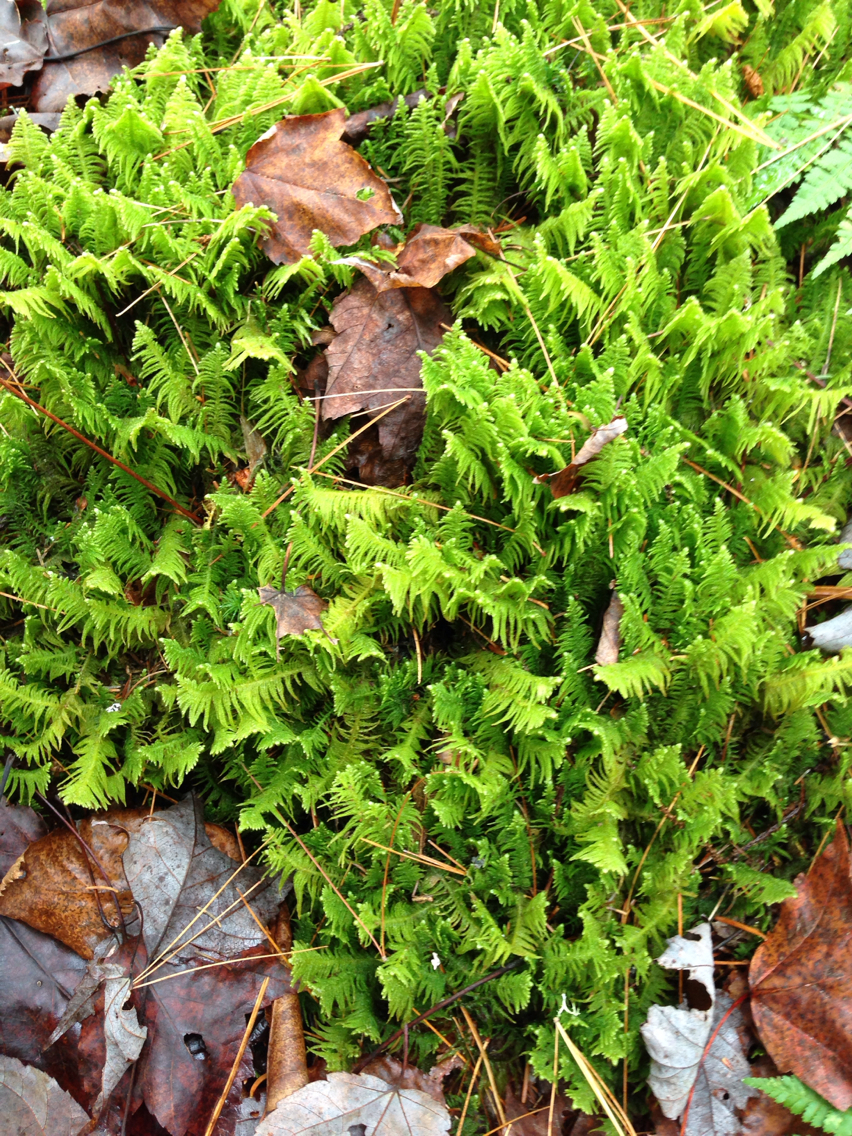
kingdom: Plantae
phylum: Bryophyta
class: Bryopsida
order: Hypnales
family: Pylaisiaceae
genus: Ptilium
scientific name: Ptilium crista-castrensis
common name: Knight's plume moss
